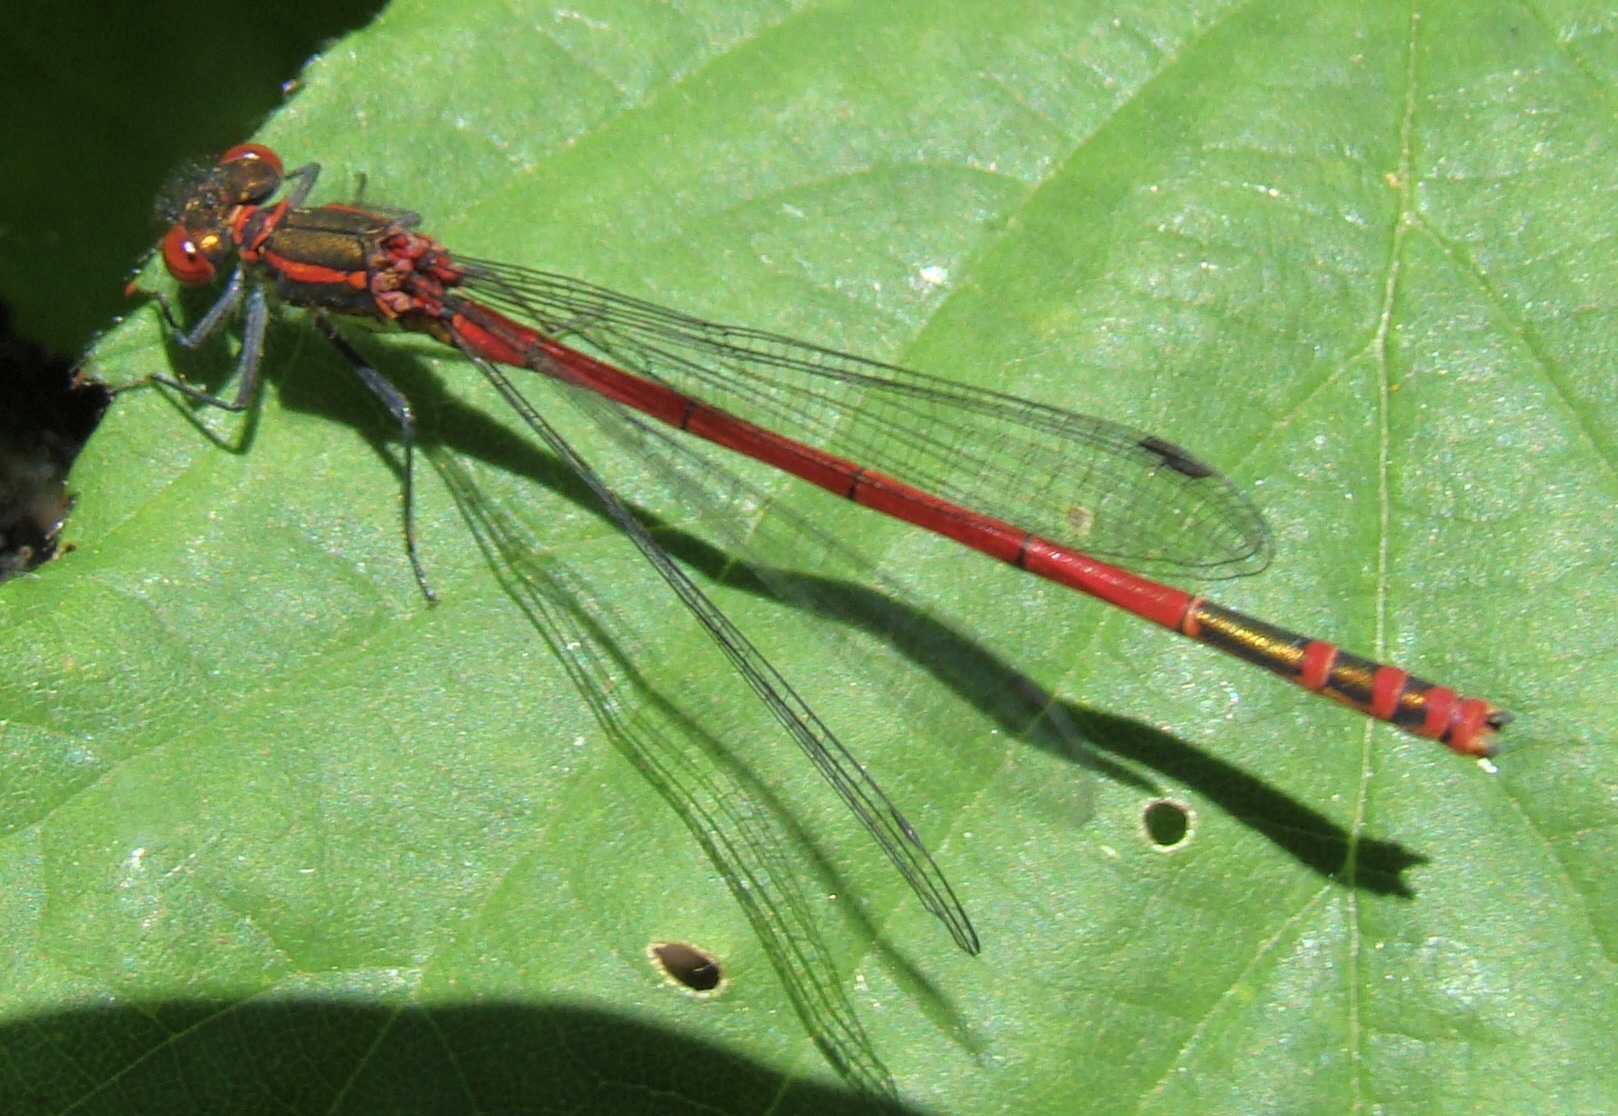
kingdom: Animalia
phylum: Arthropoda
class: Insecta
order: Odonata
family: Coenagrionidae
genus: Pyrrhosoma
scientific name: Pyrrhosoma nymphula
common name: Large red damsel
